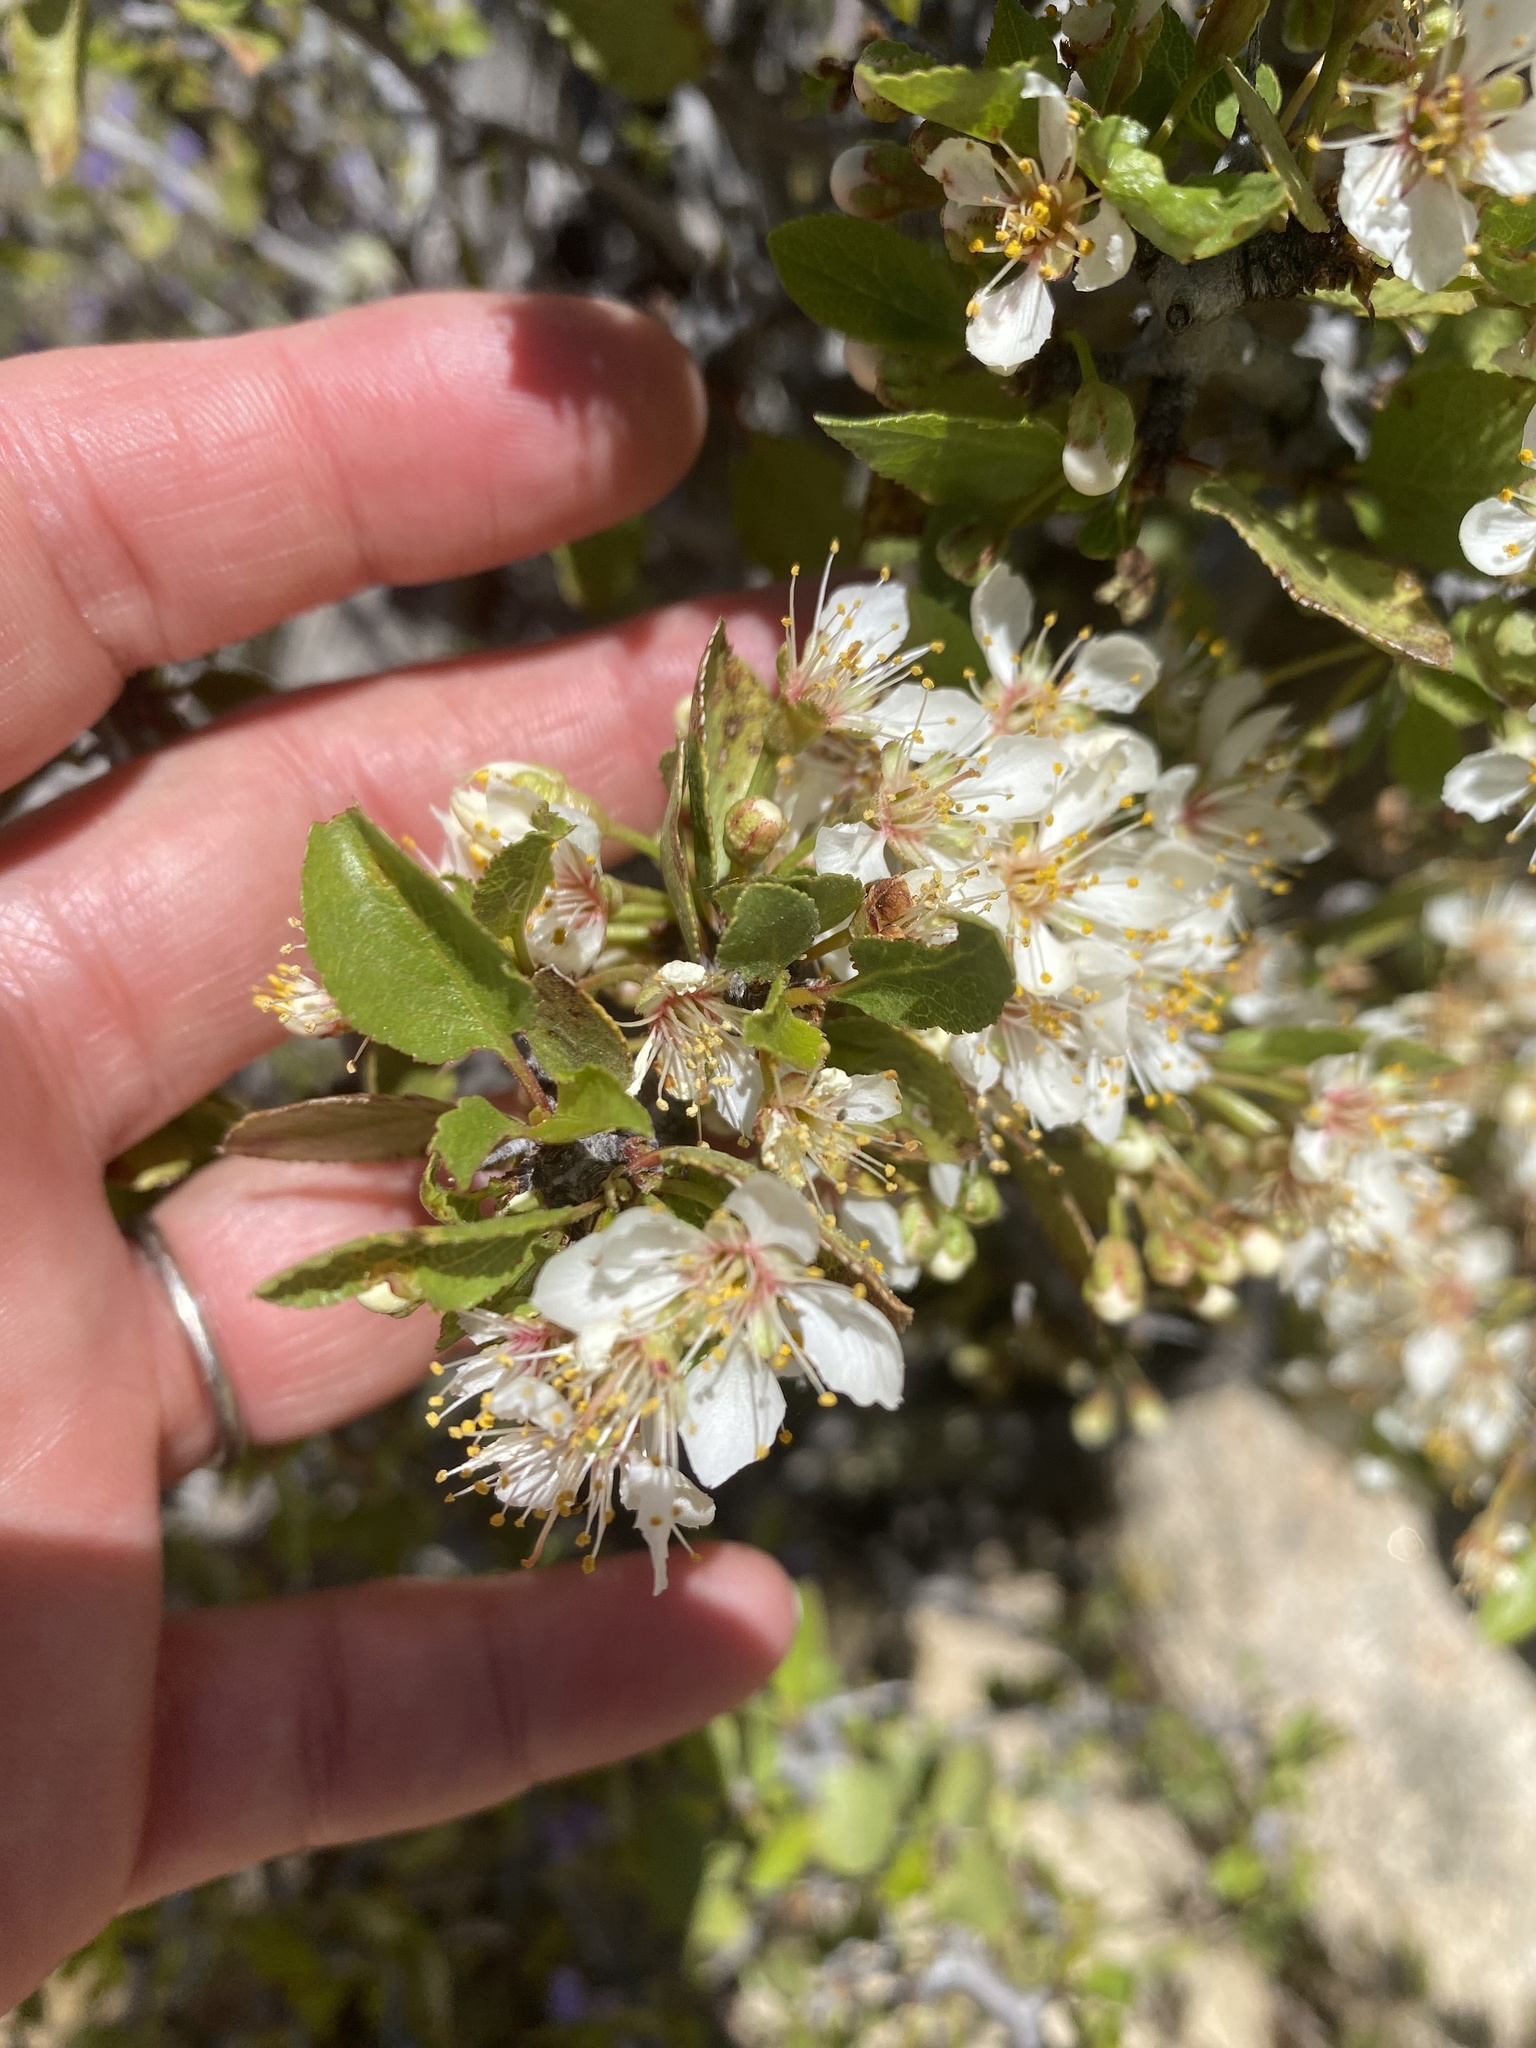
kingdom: Plantae
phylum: Tracheophyta
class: Magnoliopsida
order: Rosales
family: Rosaceae
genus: Prunus
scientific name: Prunus fremontii
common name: Desert apricot
